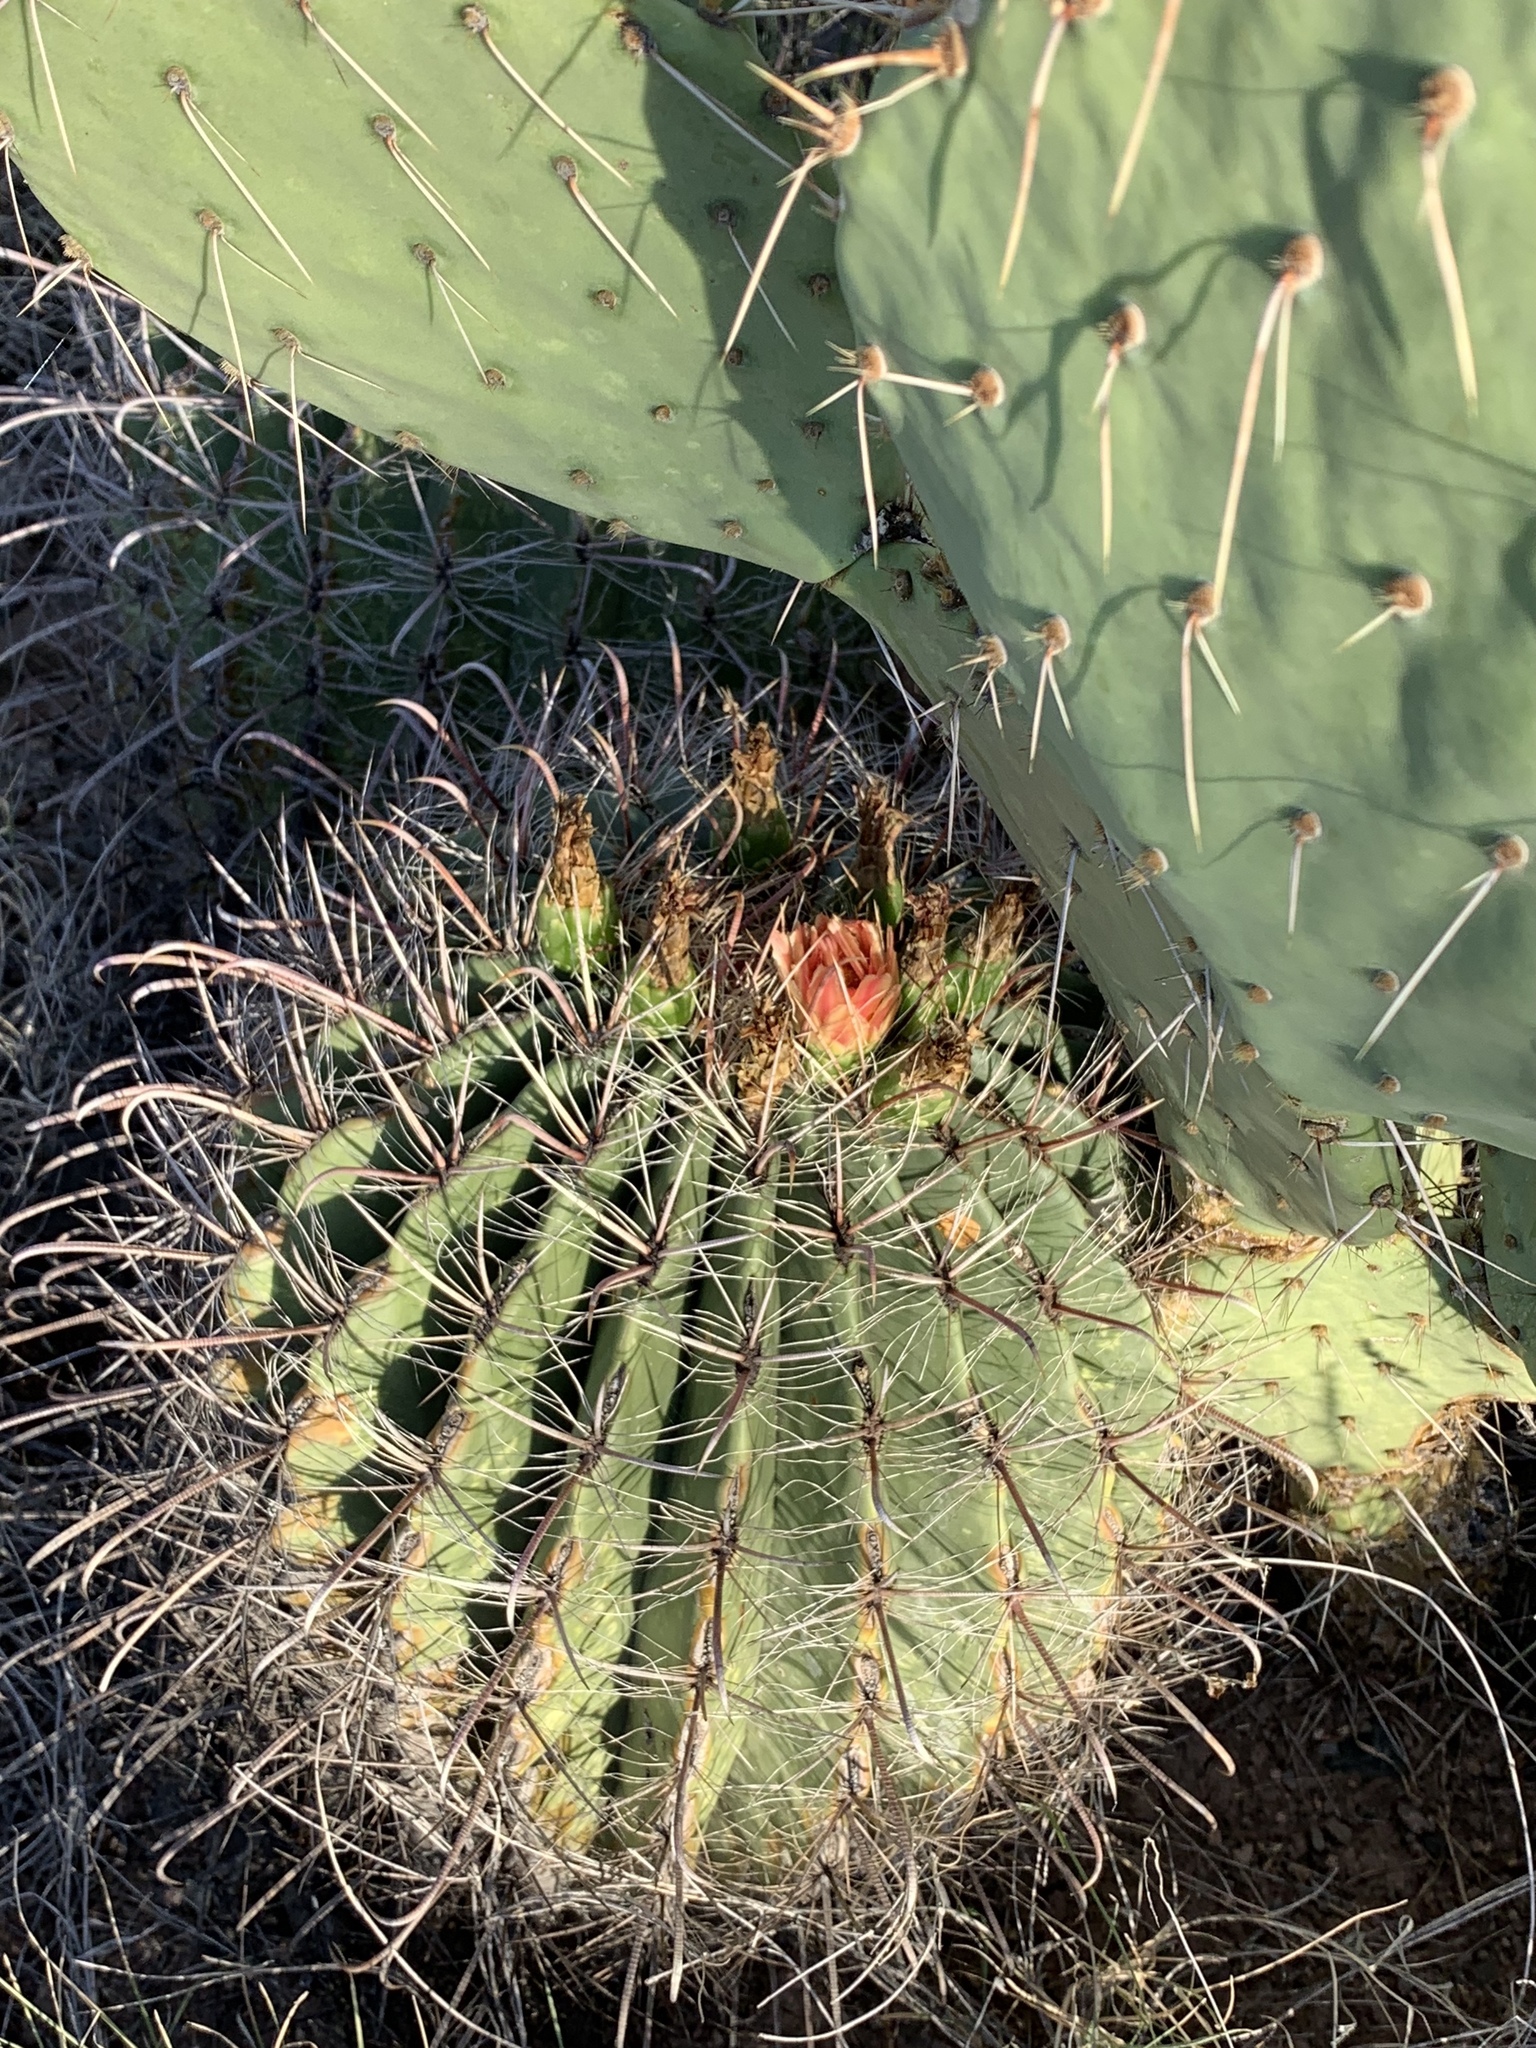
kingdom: Plantae
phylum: Tracheophyta
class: Magnoliopsida
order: Caryophyllales
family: Cactaceae
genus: Ferocactus
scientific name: Ferocactus wislizeni
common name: Candy barrel cactus
